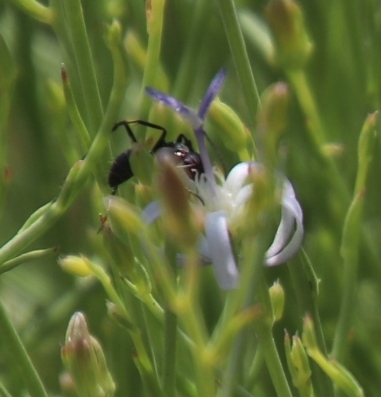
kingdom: Plantae
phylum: Tracheophyta
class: Magnoliopsida
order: Asterales
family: Campanulaceae
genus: Wahlenbergia
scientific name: Wahlenbergia magaliesbergensis
